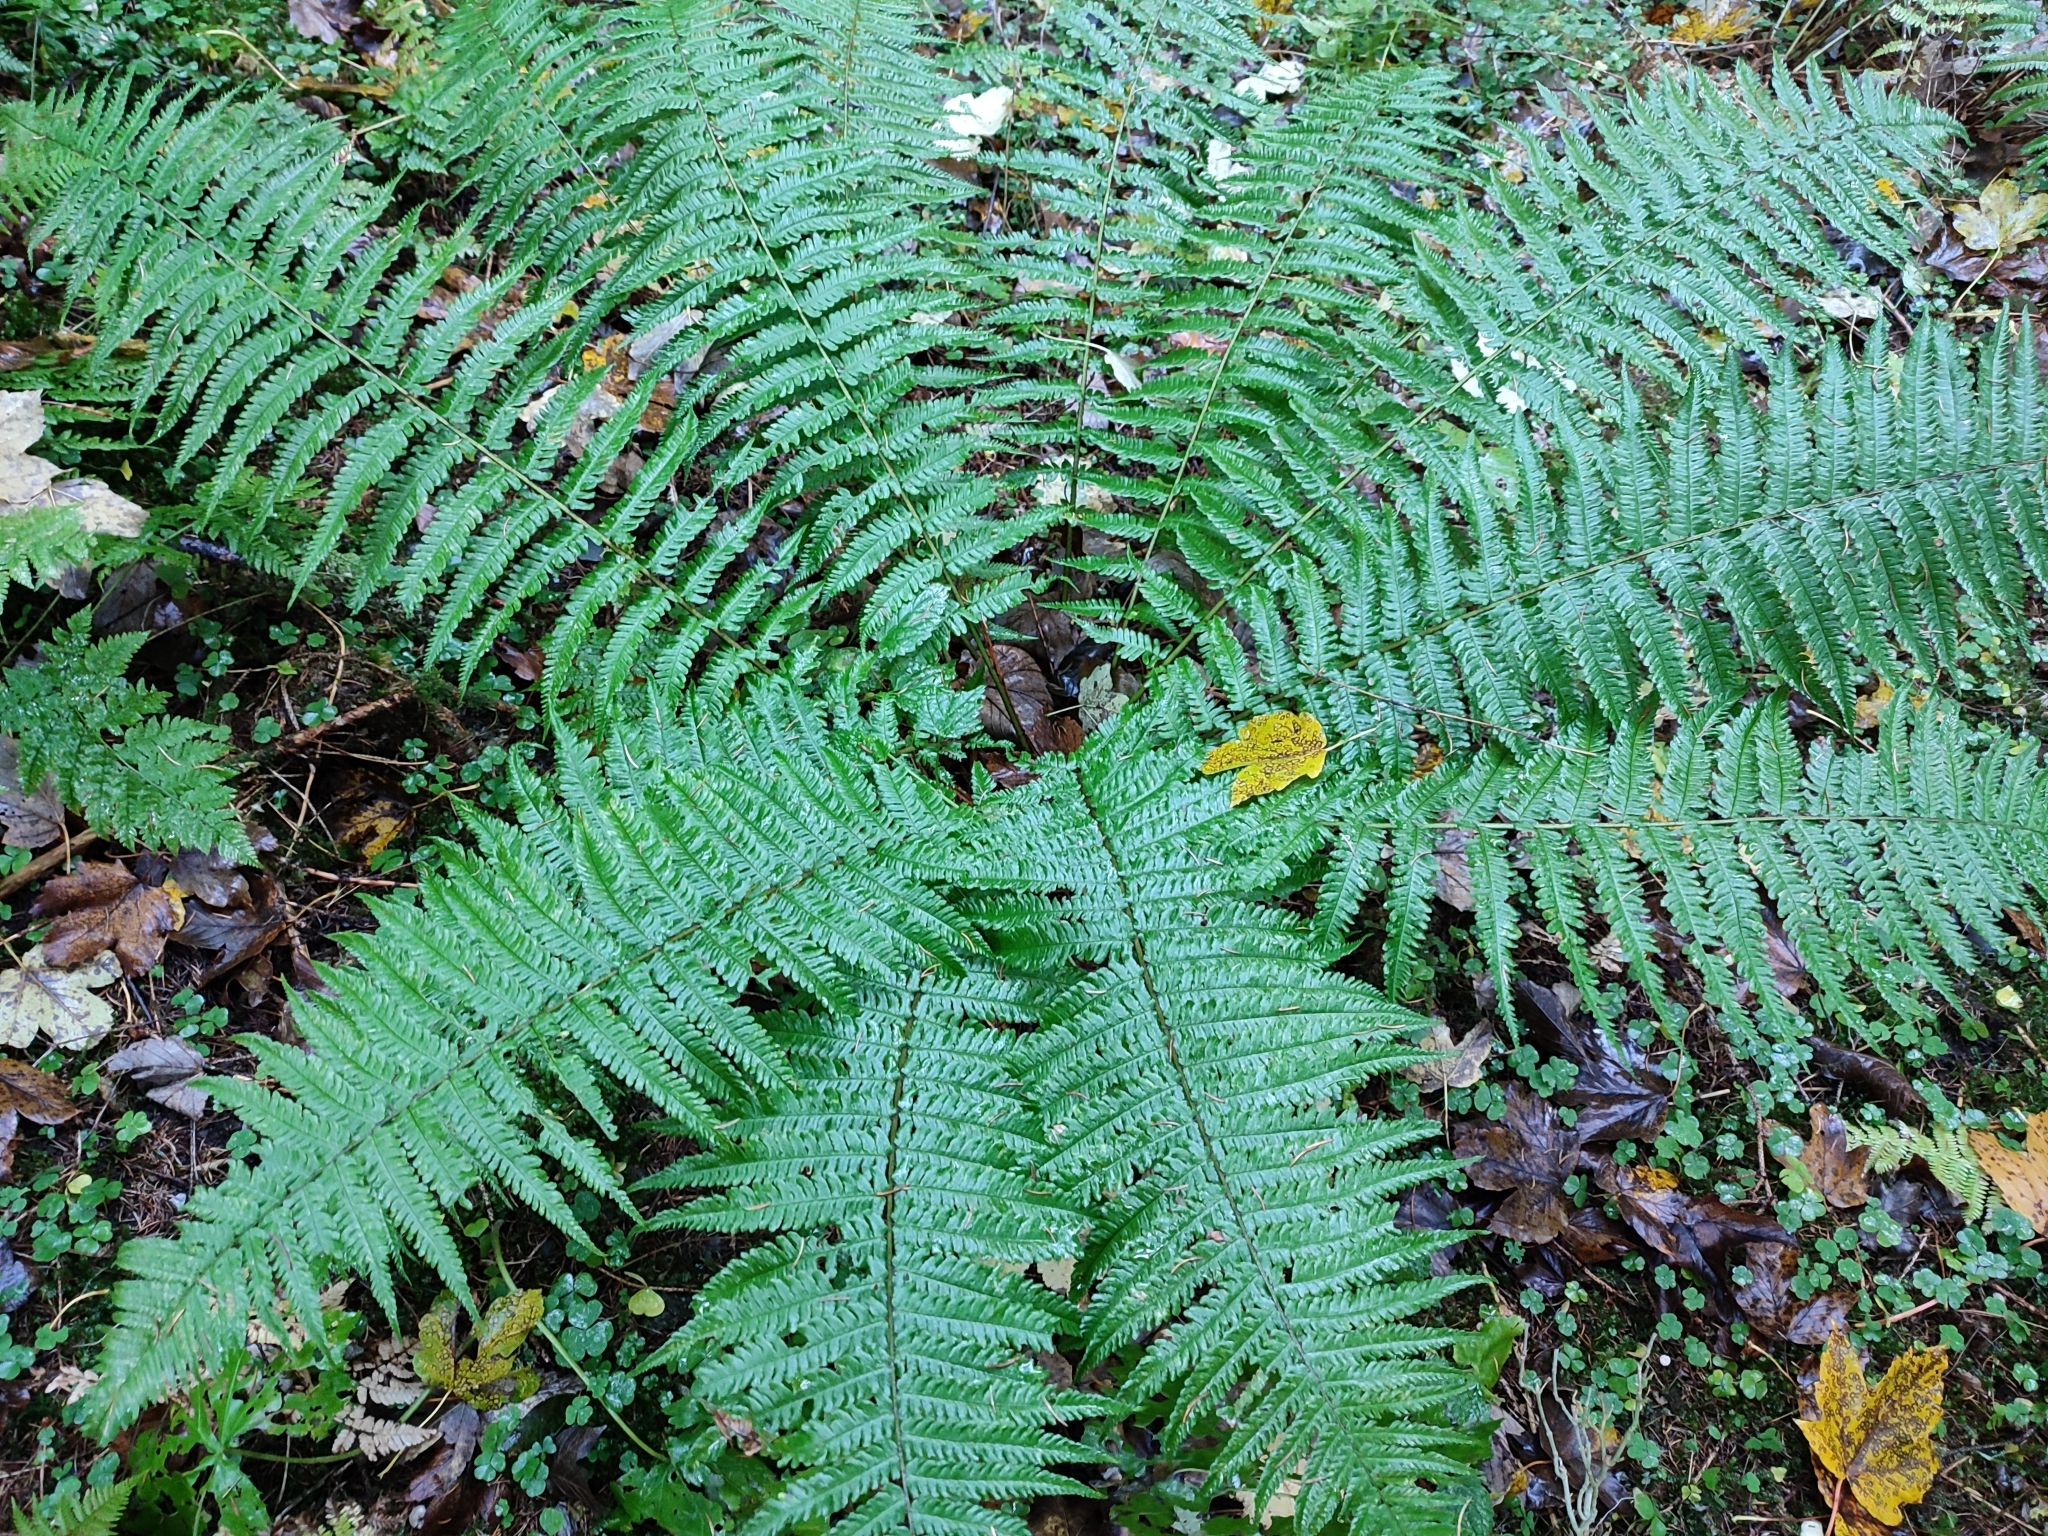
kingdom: Plantae
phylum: Tracheophyta
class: Polypodiopsida
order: Polypodiales
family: Dryopteridaceae
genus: Dryopteris
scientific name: Dryopteris borreri
